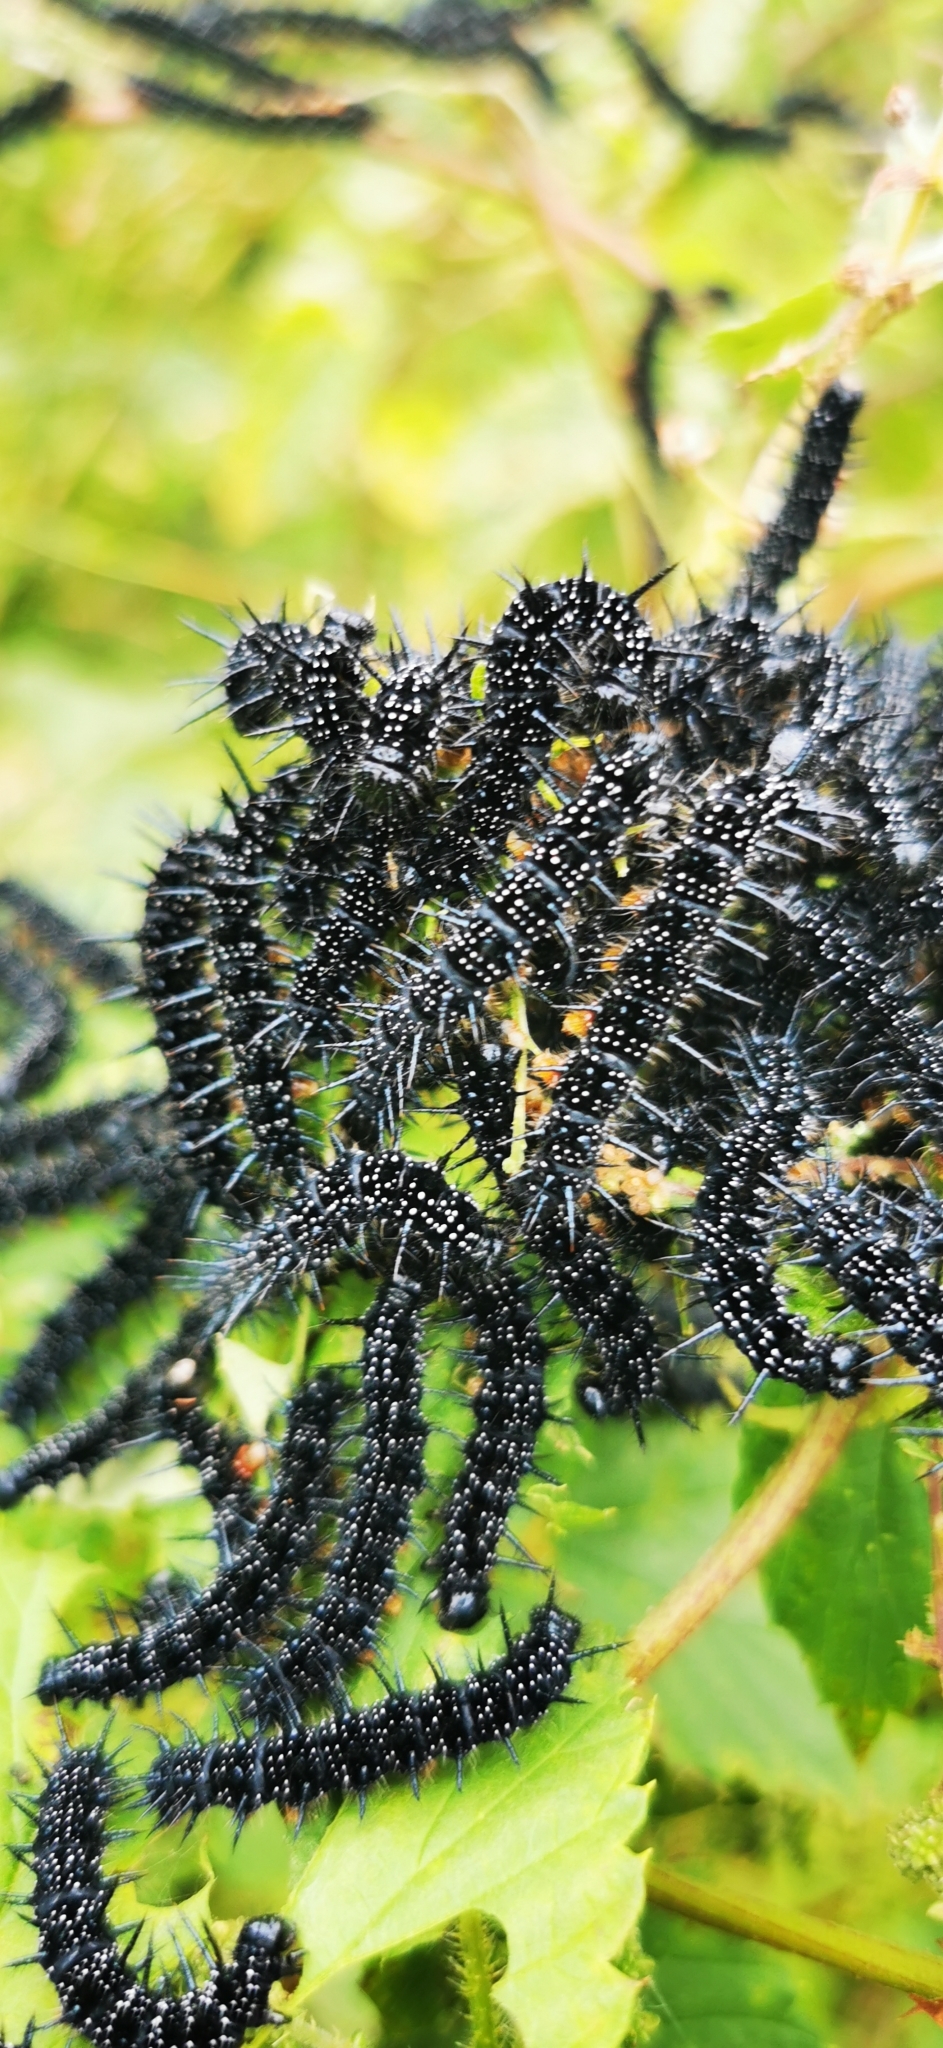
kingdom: Animalia
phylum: Arthropoda
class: Insecta
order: Lepidoptera
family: Nymphalidae
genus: Aglais
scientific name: Aglais io
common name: Peacock
